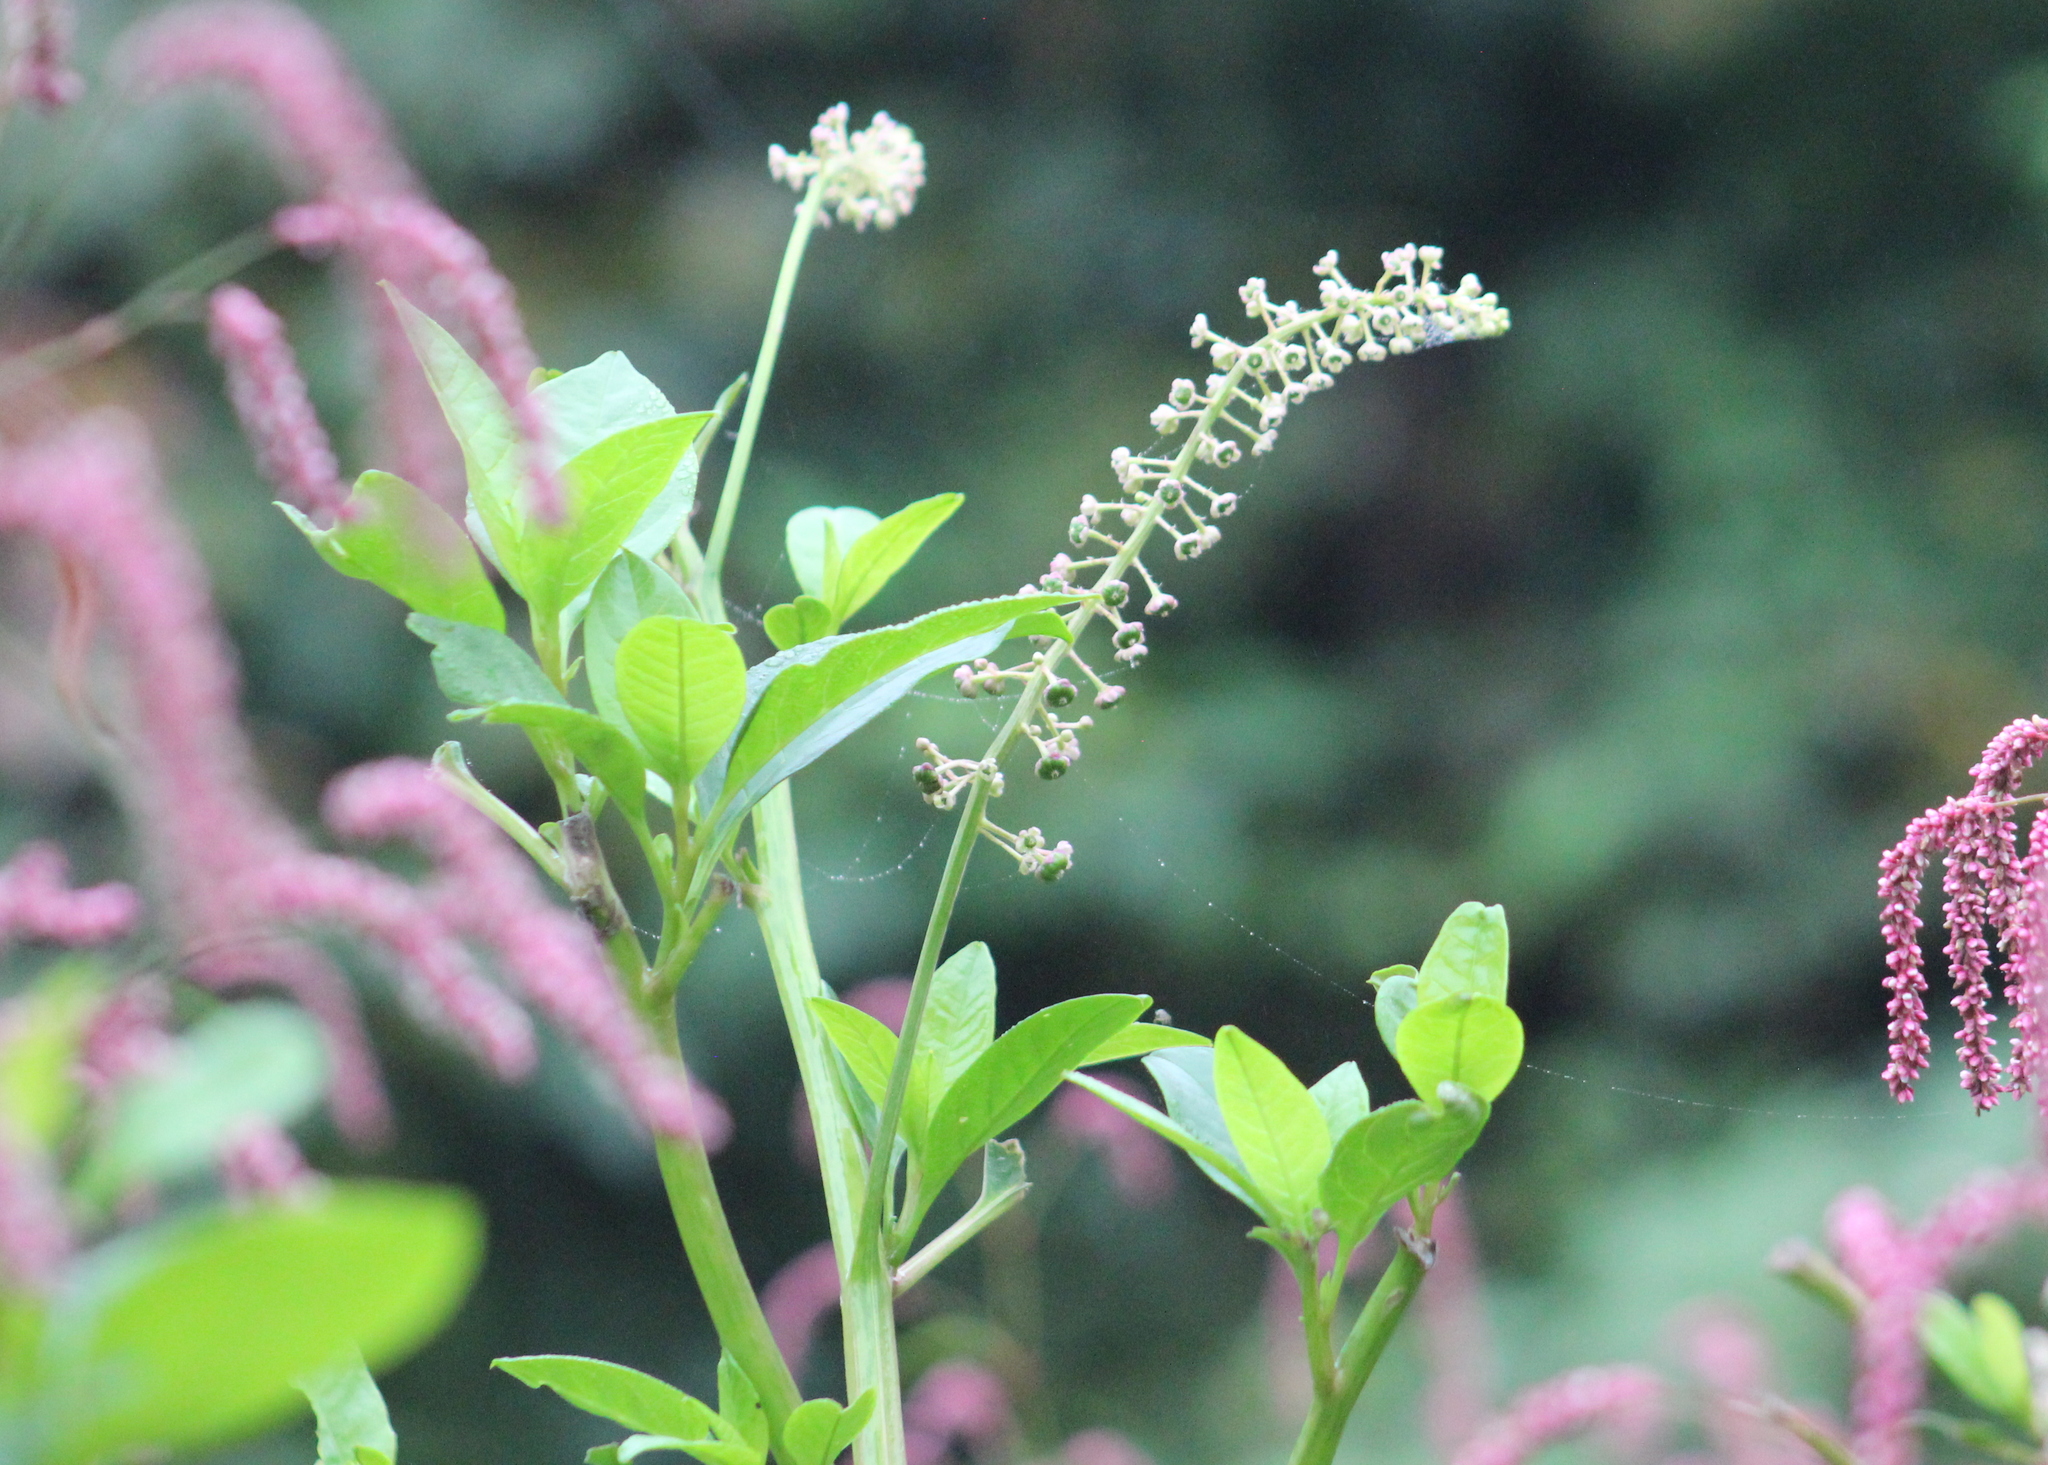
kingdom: Plantae
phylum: Tracheophyta
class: Magnoliopsida
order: Caryophyllales
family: Phytolaccaceae
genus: Phytolacca
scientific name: Phytolacca americana
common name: American pokeweed
